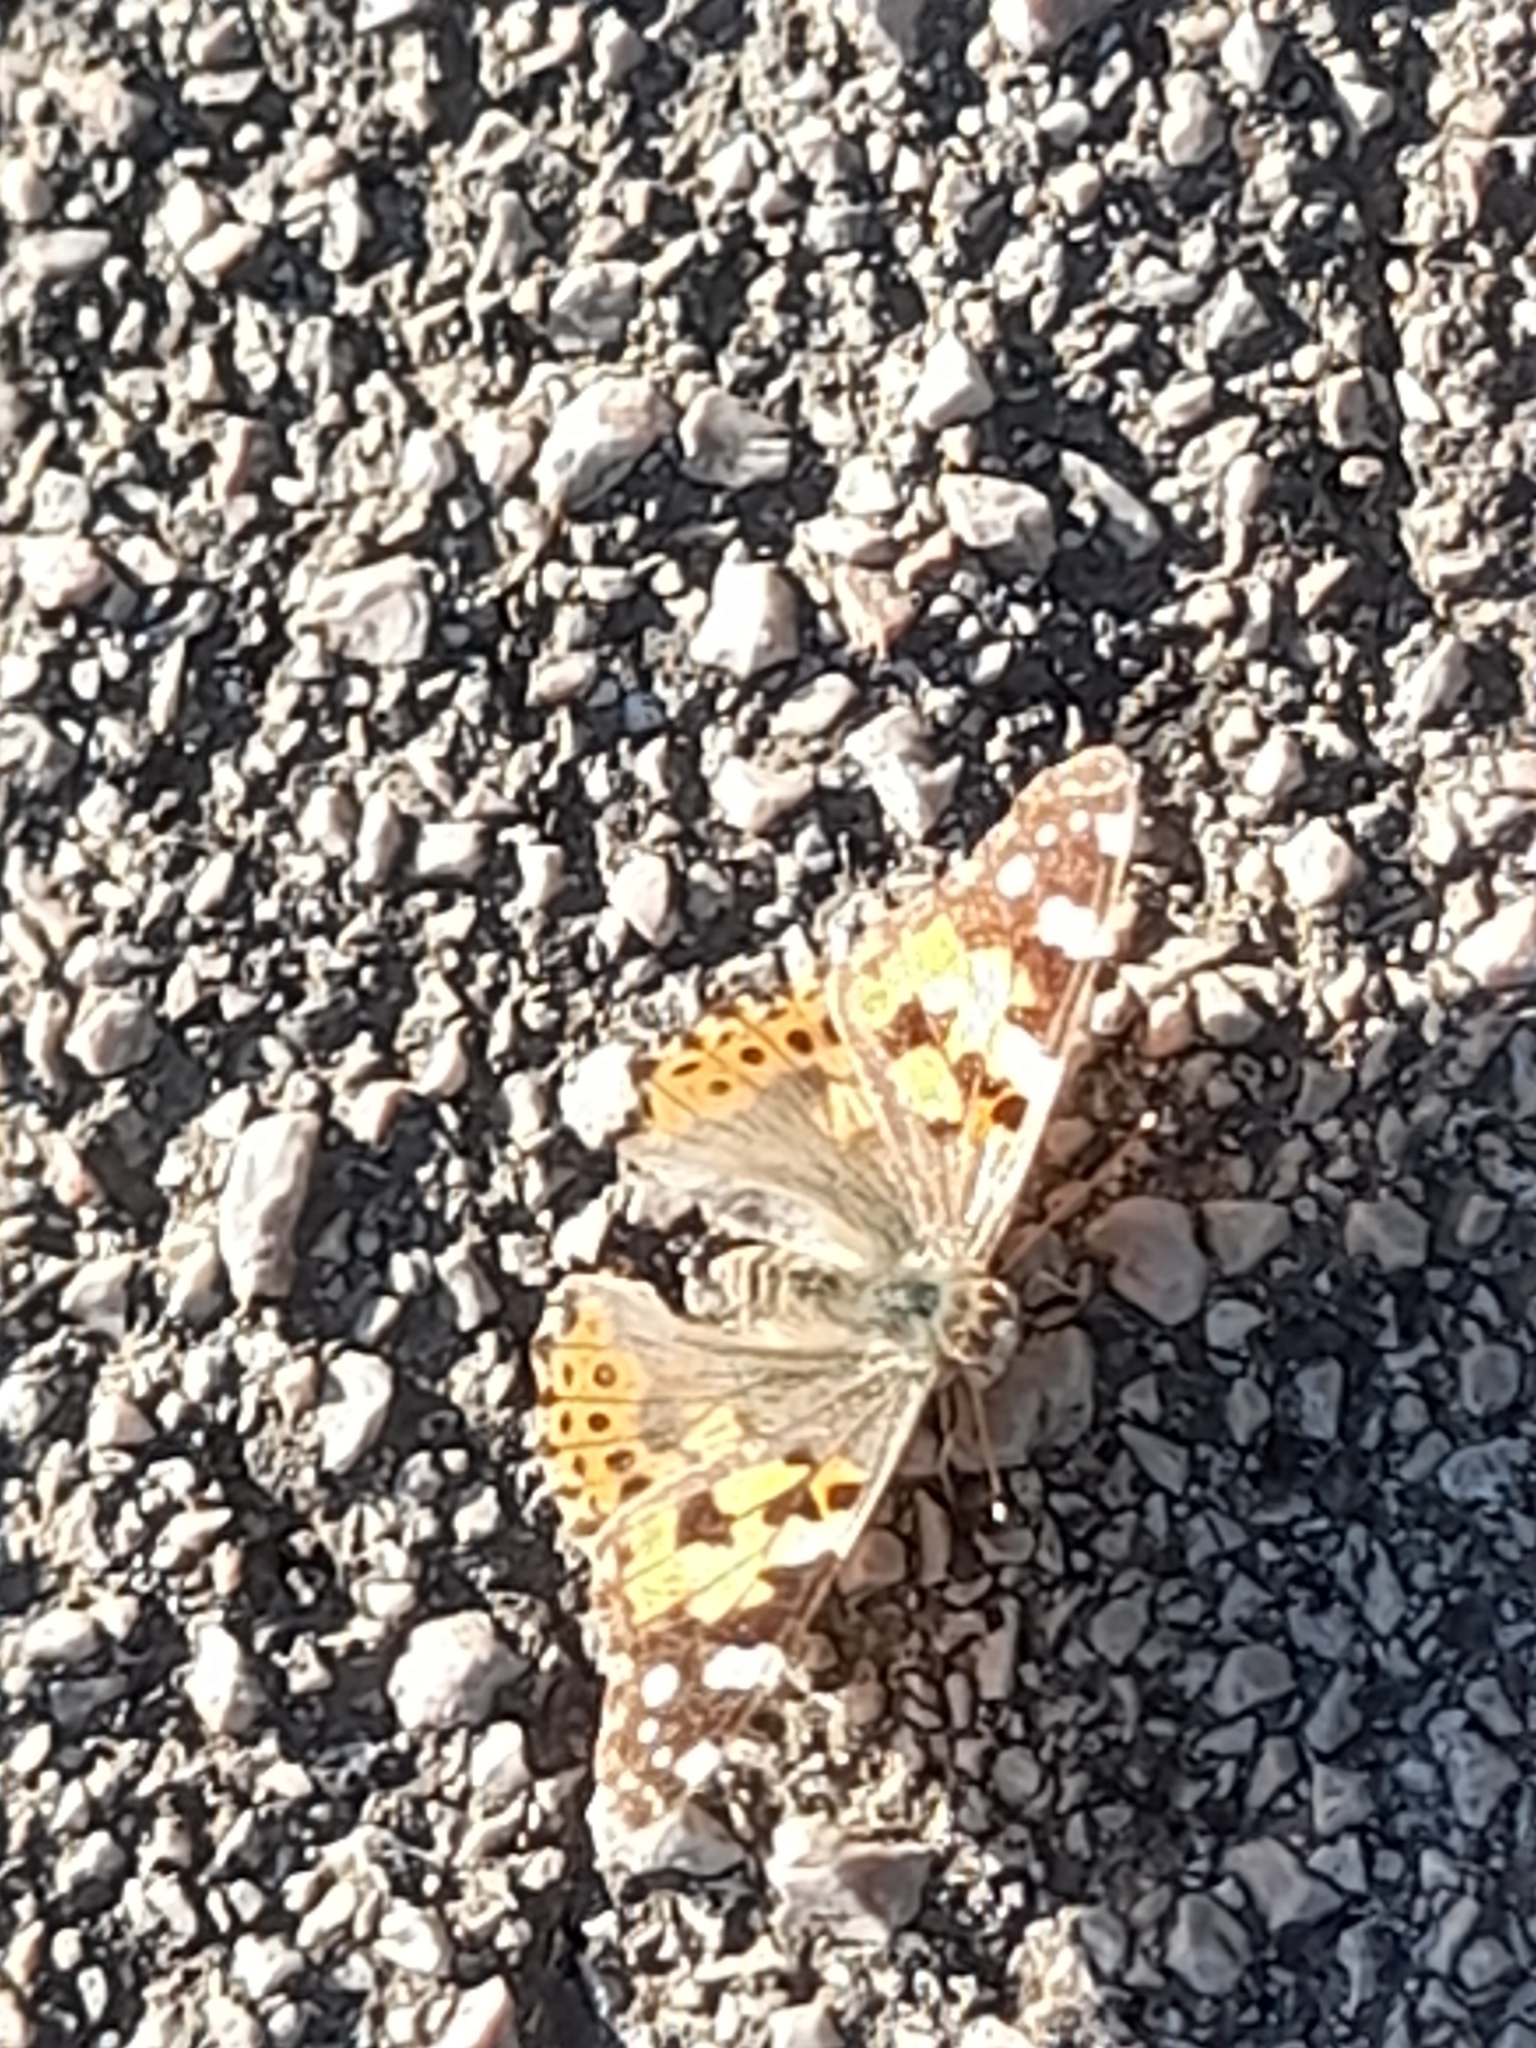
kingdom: Animalia
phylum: Arthropoda
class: Insecta
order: Lepidoptera
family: Nymphalidae
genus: Vanessa
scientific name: Vanessa cardui
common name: Painted lady
